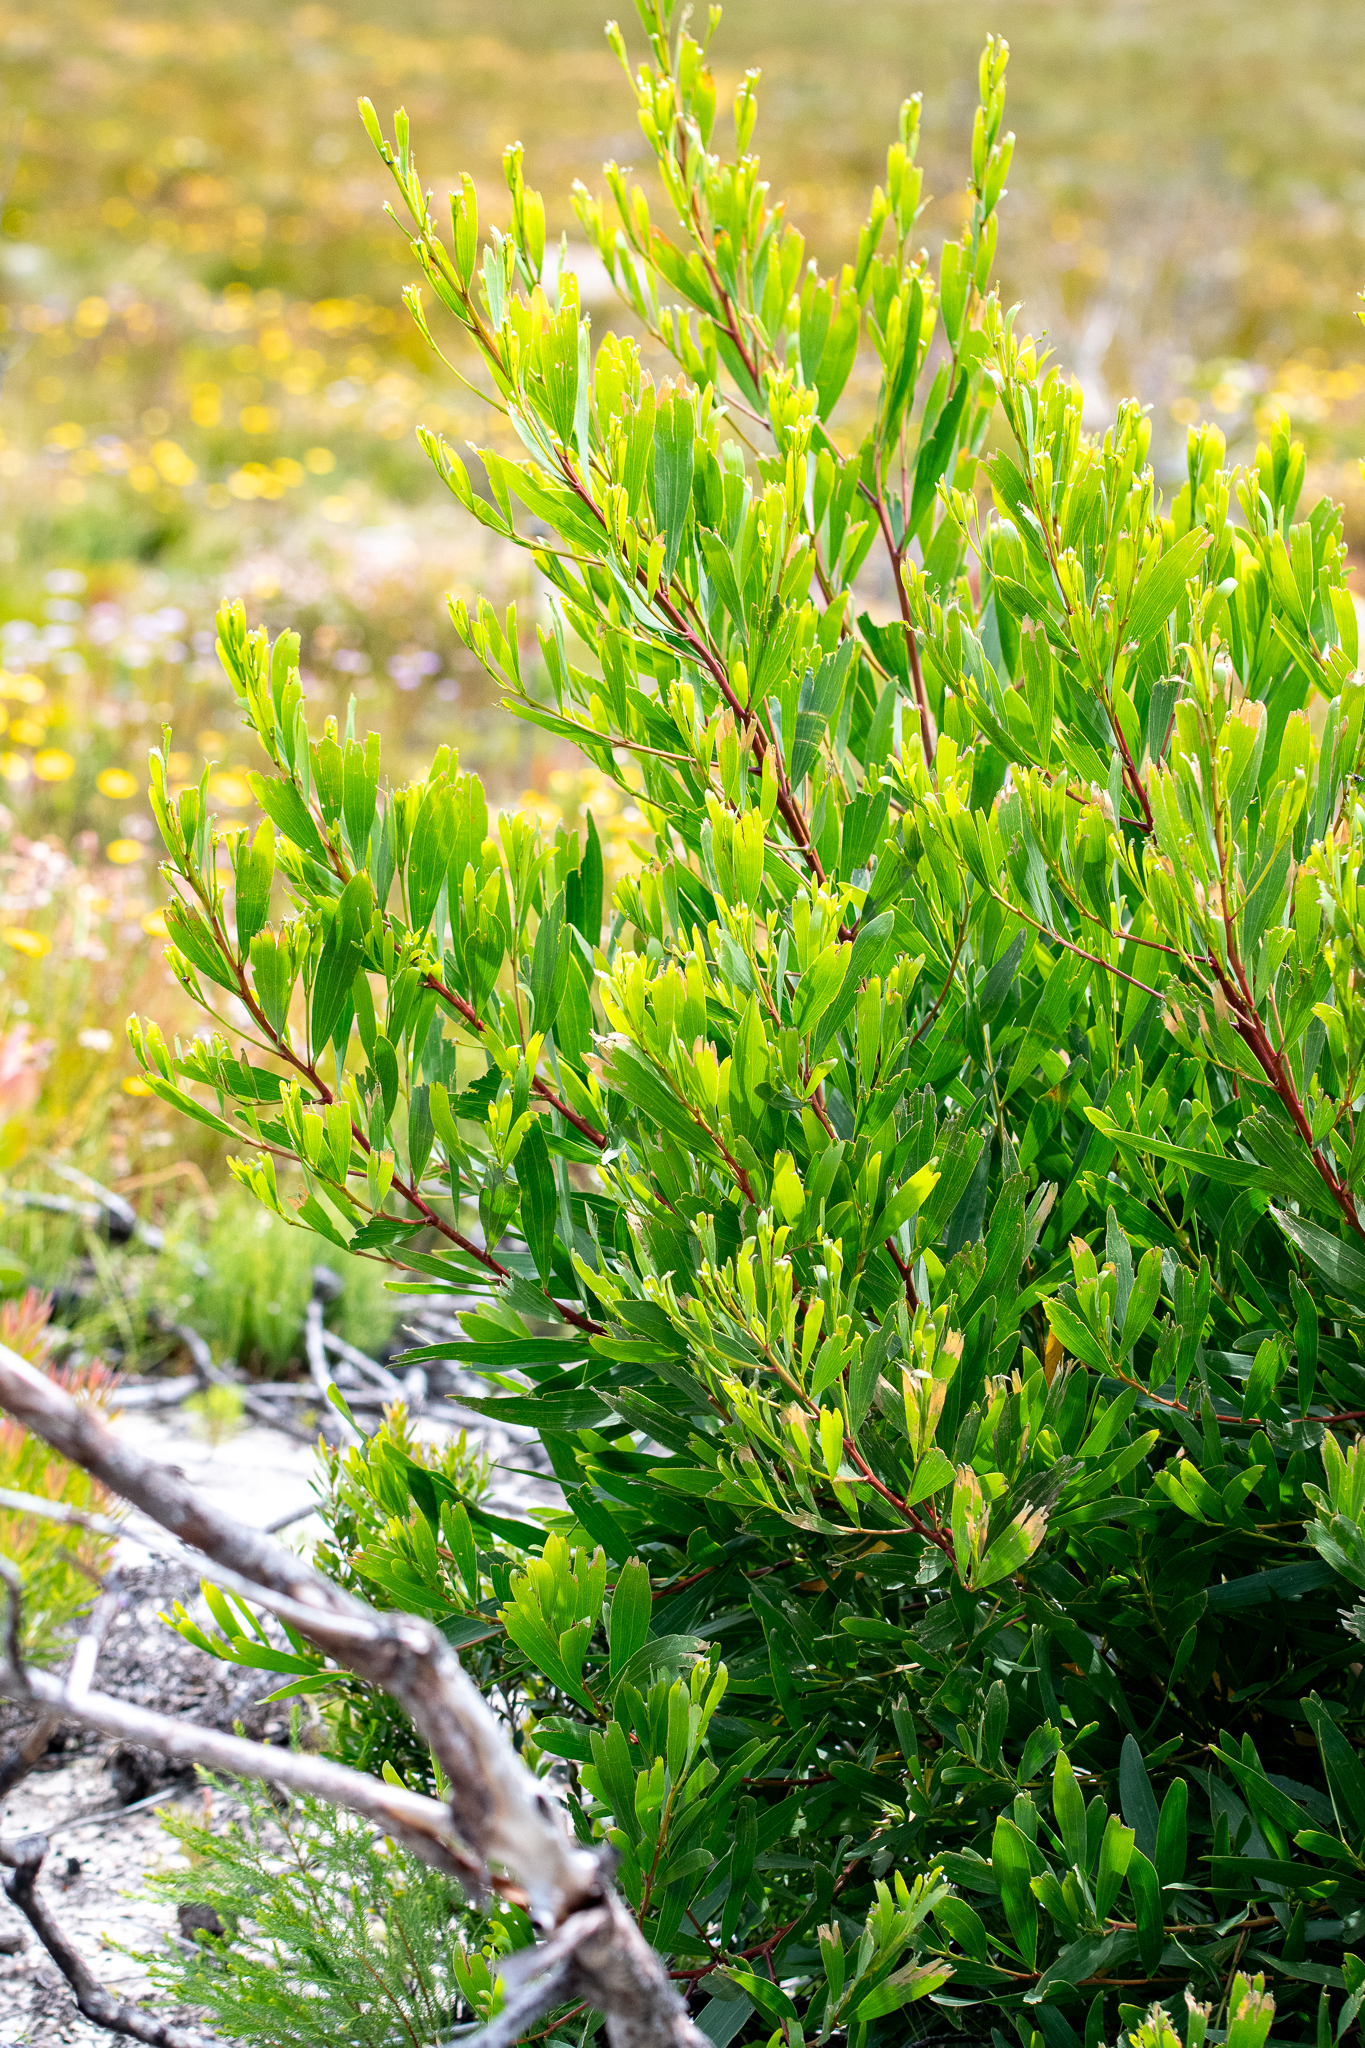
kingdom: Plantae
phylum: Tracheophyta
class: Magnoliopsida
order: Fabales
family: Fabaceae
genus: Acacia
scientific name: Acacia longifolia
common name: Sydney golden wattle
